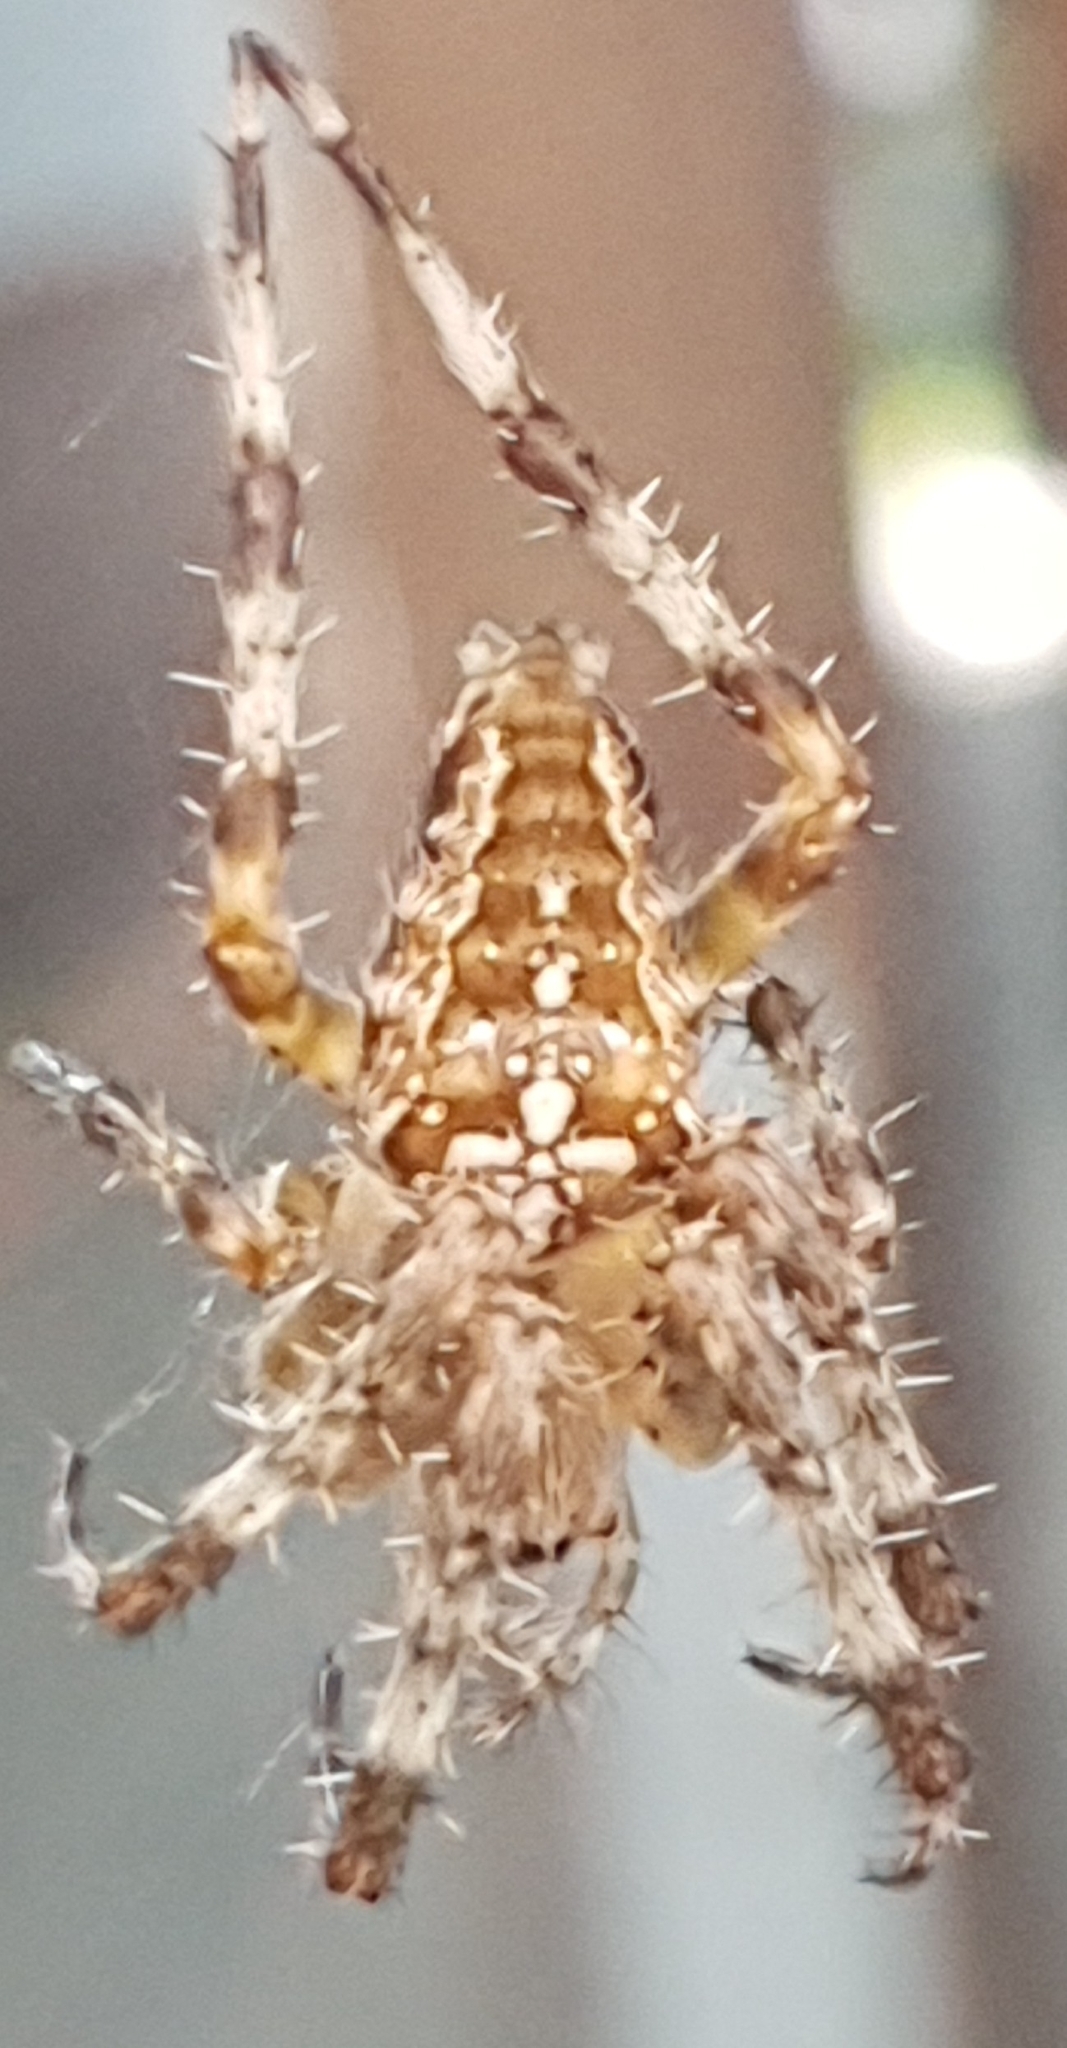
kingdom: Animalia
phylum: Arthropoda
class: Arachnida
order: Araneae
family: Araneidae
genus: Araneus
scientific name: Araneus diadematus
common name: Cross orbweaver
